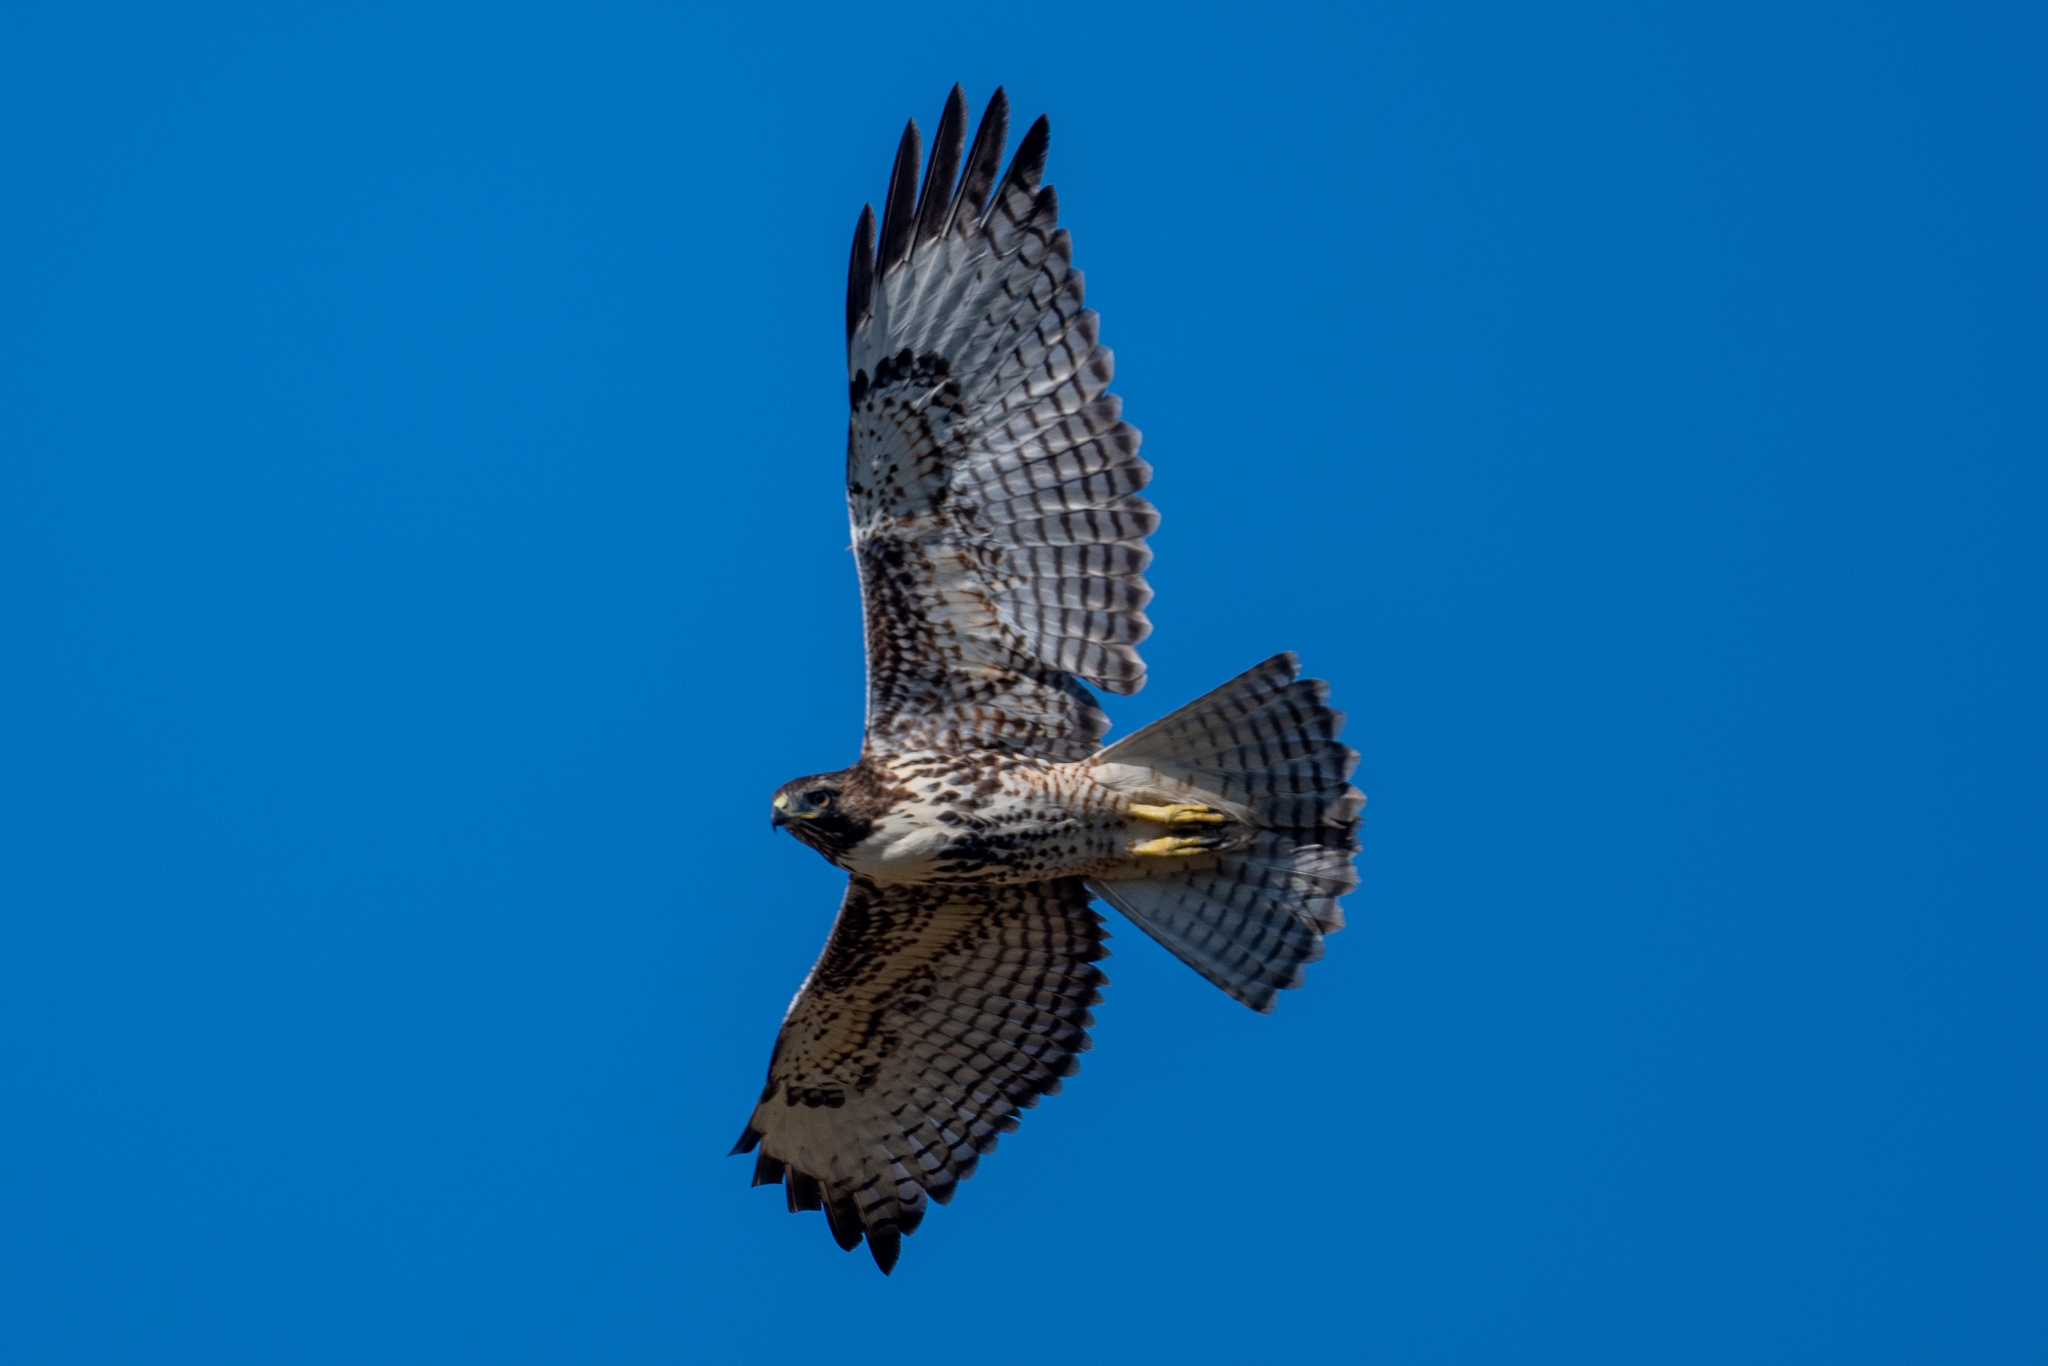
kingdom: Animalia
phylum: Chordata
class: Aves
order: Accipitriformes
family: Accipitridae
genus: Buteo
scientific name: Buteo jamaicensis
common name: Red-tailed hawk
